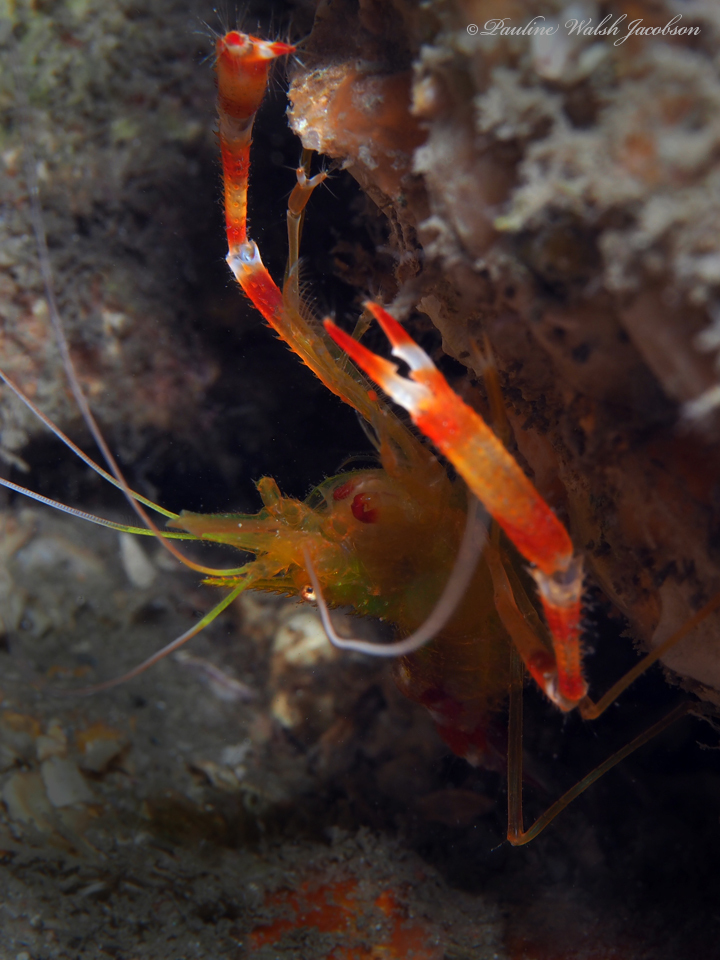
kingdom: Animalia
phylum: Arthropoda
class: Malacostraca
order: Decapoda
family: Stenopodidae
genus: Stenopus
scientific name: Stenopus scutellatus
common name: Golden coral shrimp
